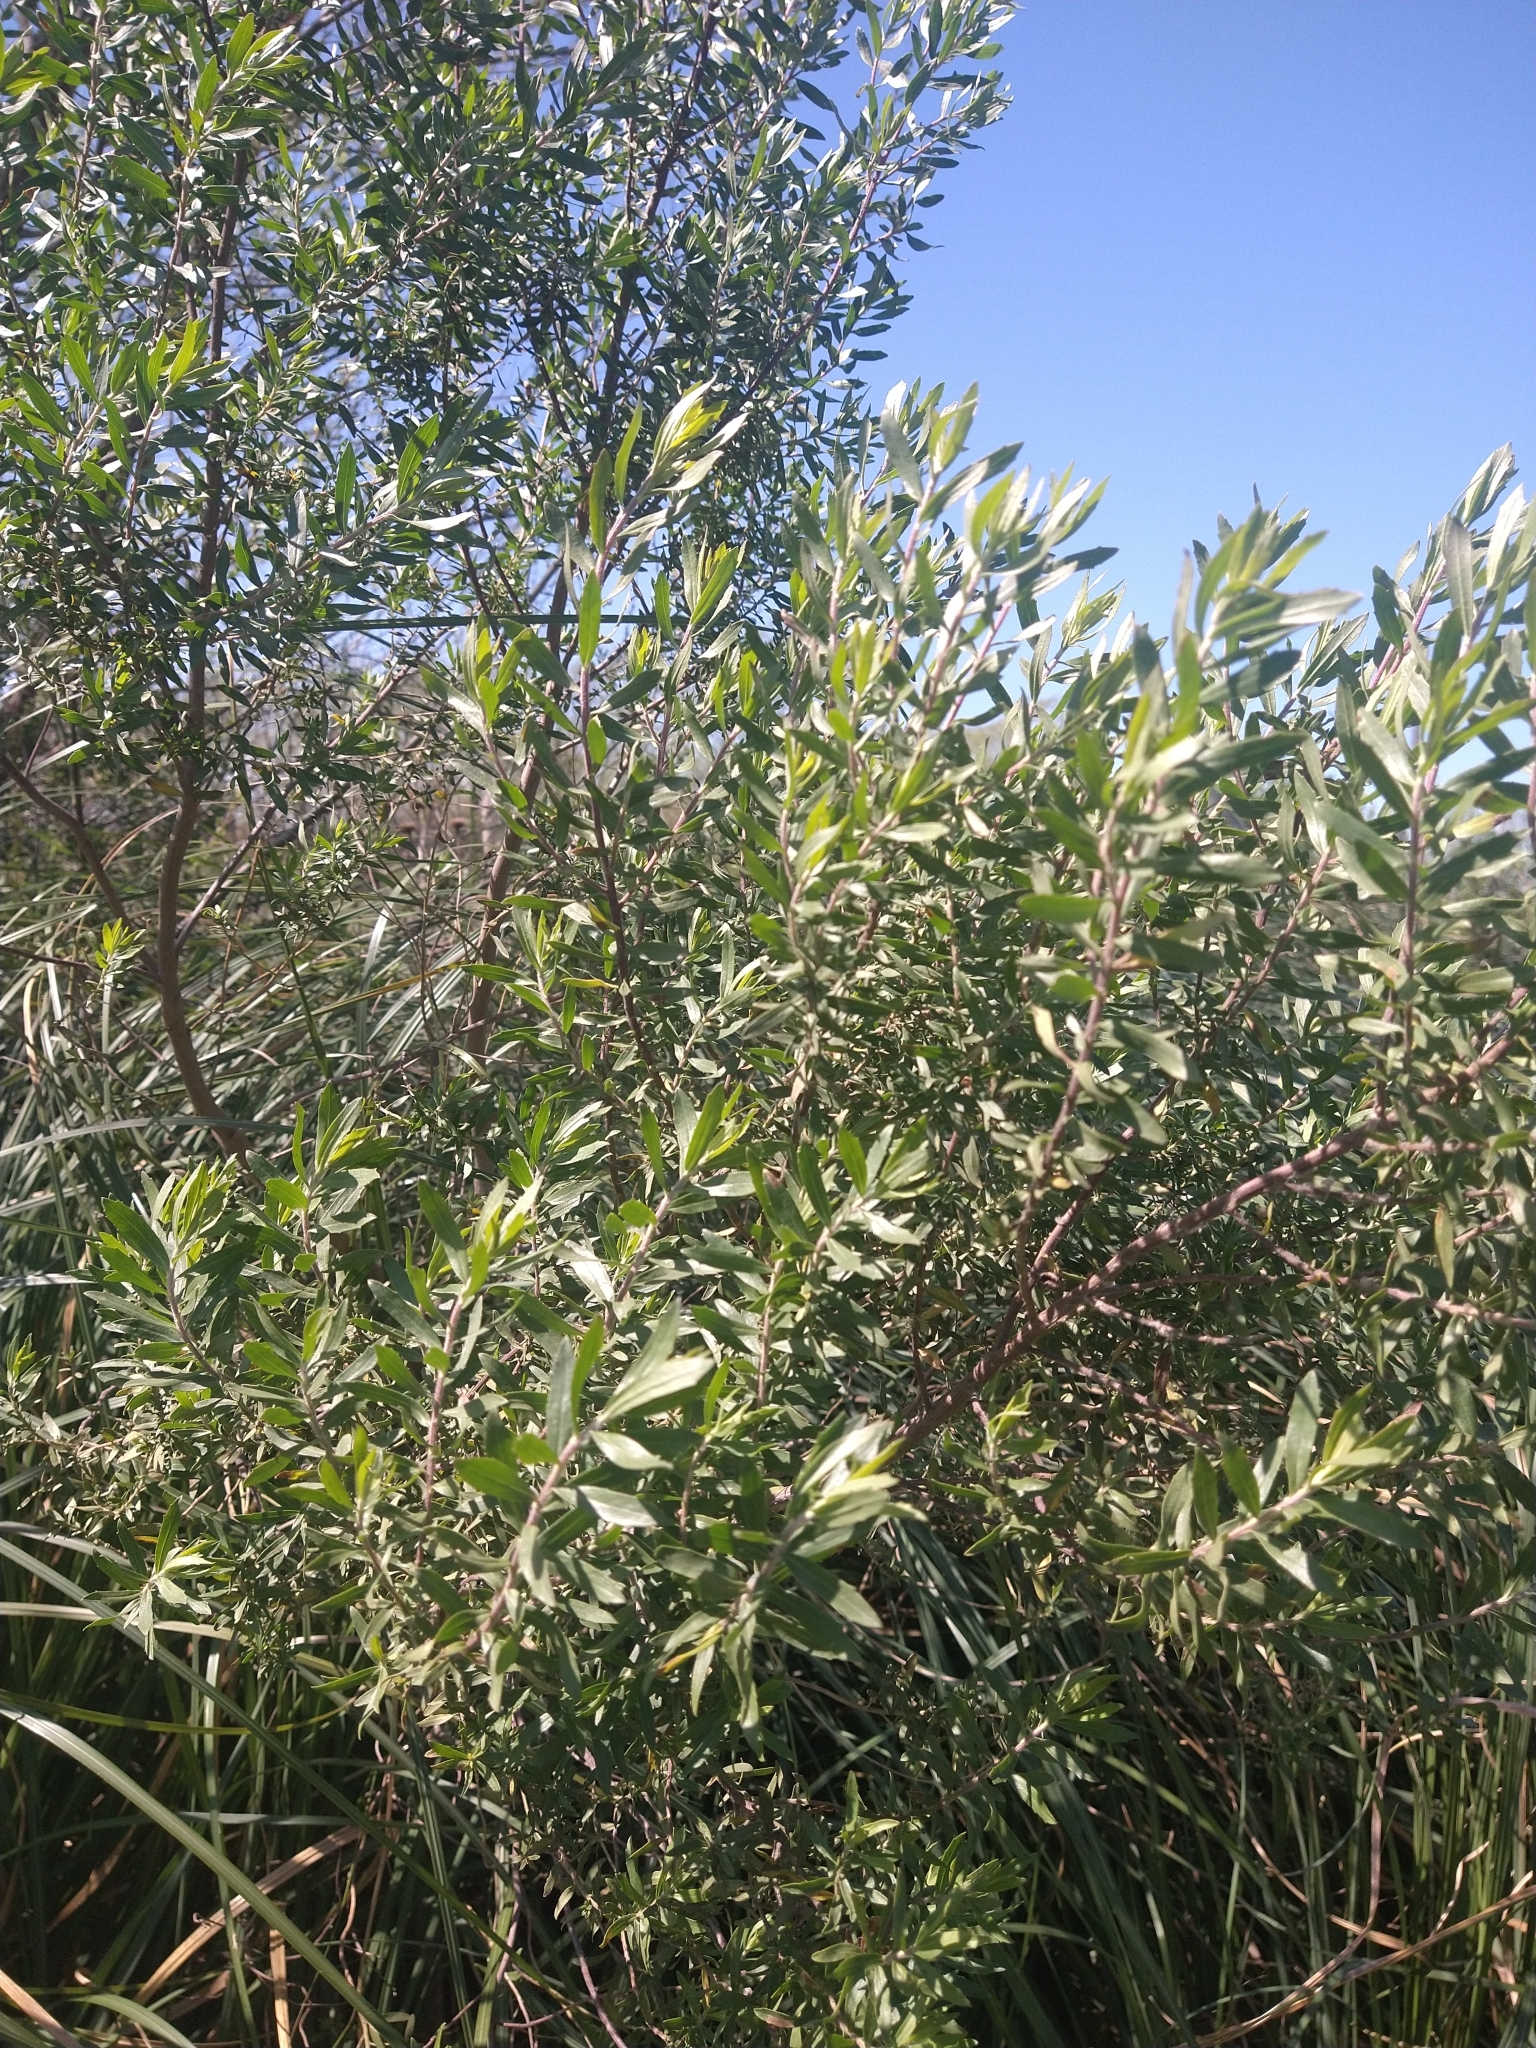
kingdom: Plantae
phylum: Tracheophyta
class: Magnoliopsida
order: Asterales
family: Asteraceae
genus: Baccharis
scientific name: Baccharis dracunculifolia
